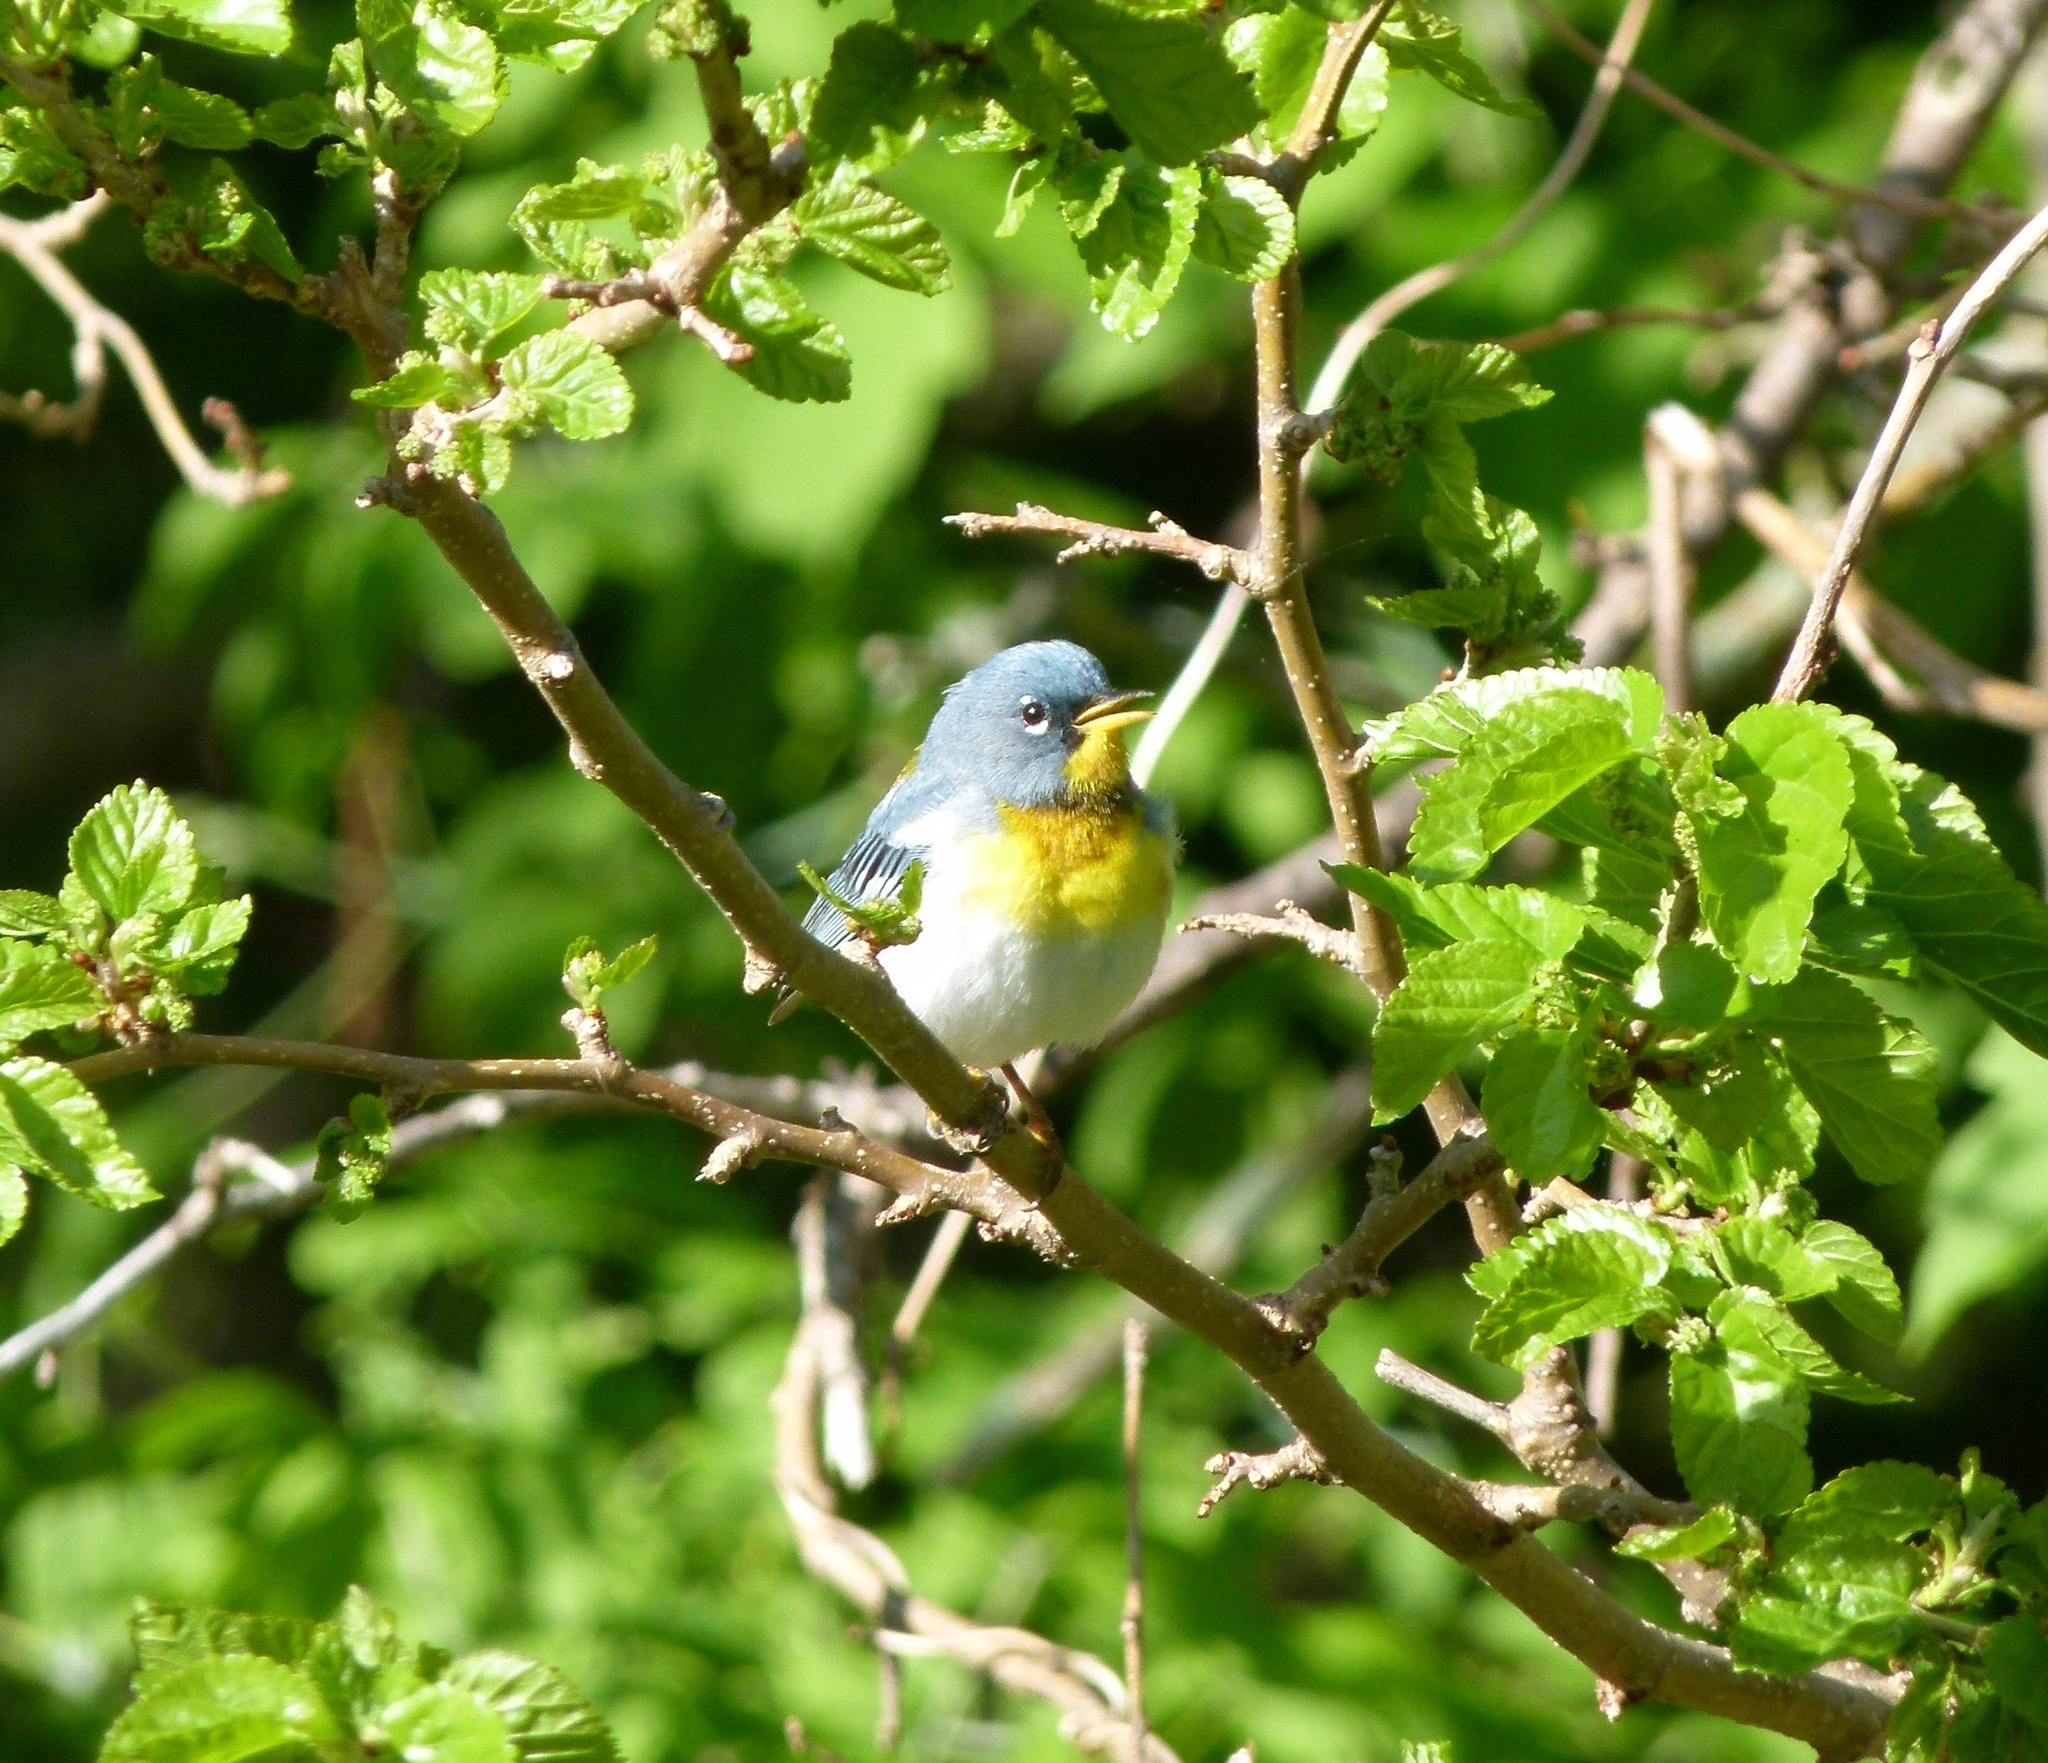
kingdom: Animalia
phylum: Chordata
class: Aves
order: Passeriformes
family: Parulidae
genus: Setophaga
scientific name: Setophaga americana
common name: Northern parula
